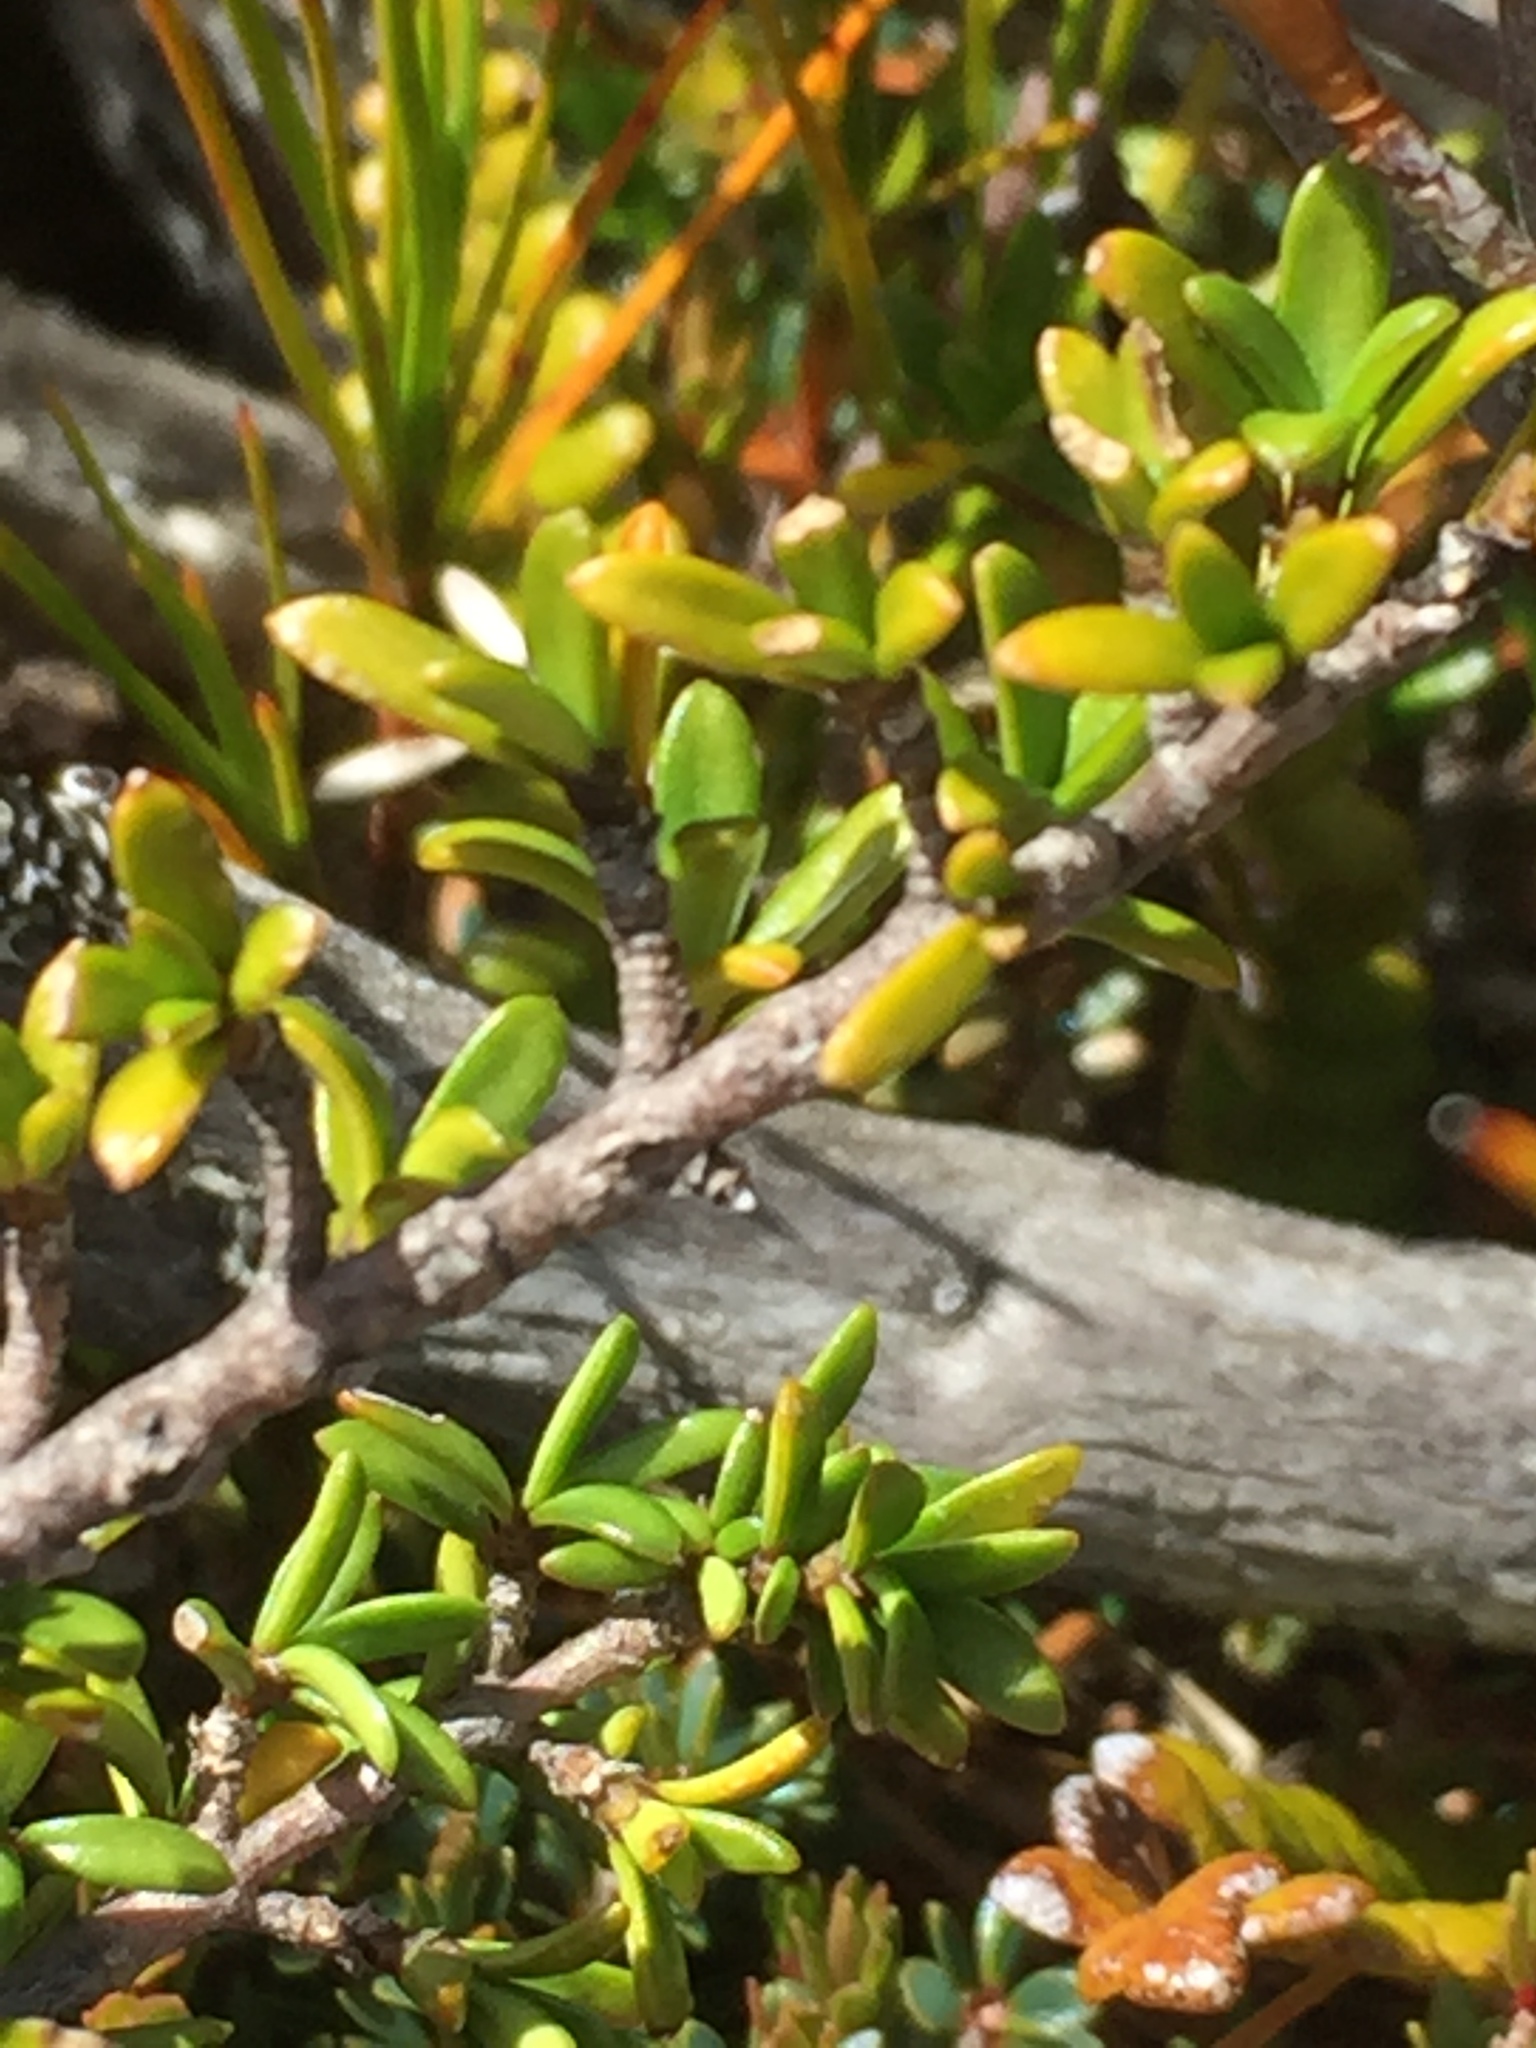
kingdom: Plantae
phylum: Tracheophyta
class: Magnoliopsida
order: Gentianales
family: Rubiaceae
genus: Coprosma
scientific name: Coprosma fowerakeri
